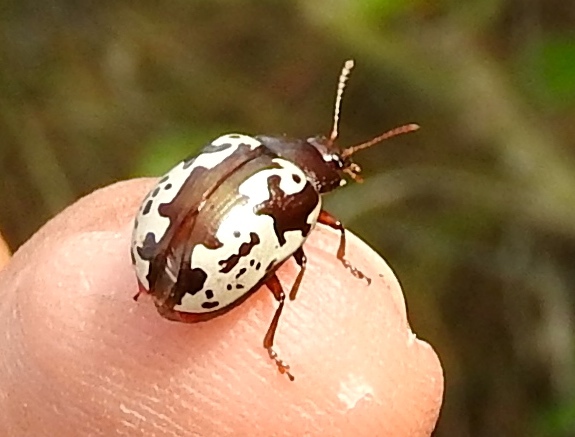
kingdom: Animalia
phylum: Arthropoda
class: Insecta
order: Coleoptera
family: Chrysomelidae
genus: Calligrapha
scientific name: Calligrapha intermedia
